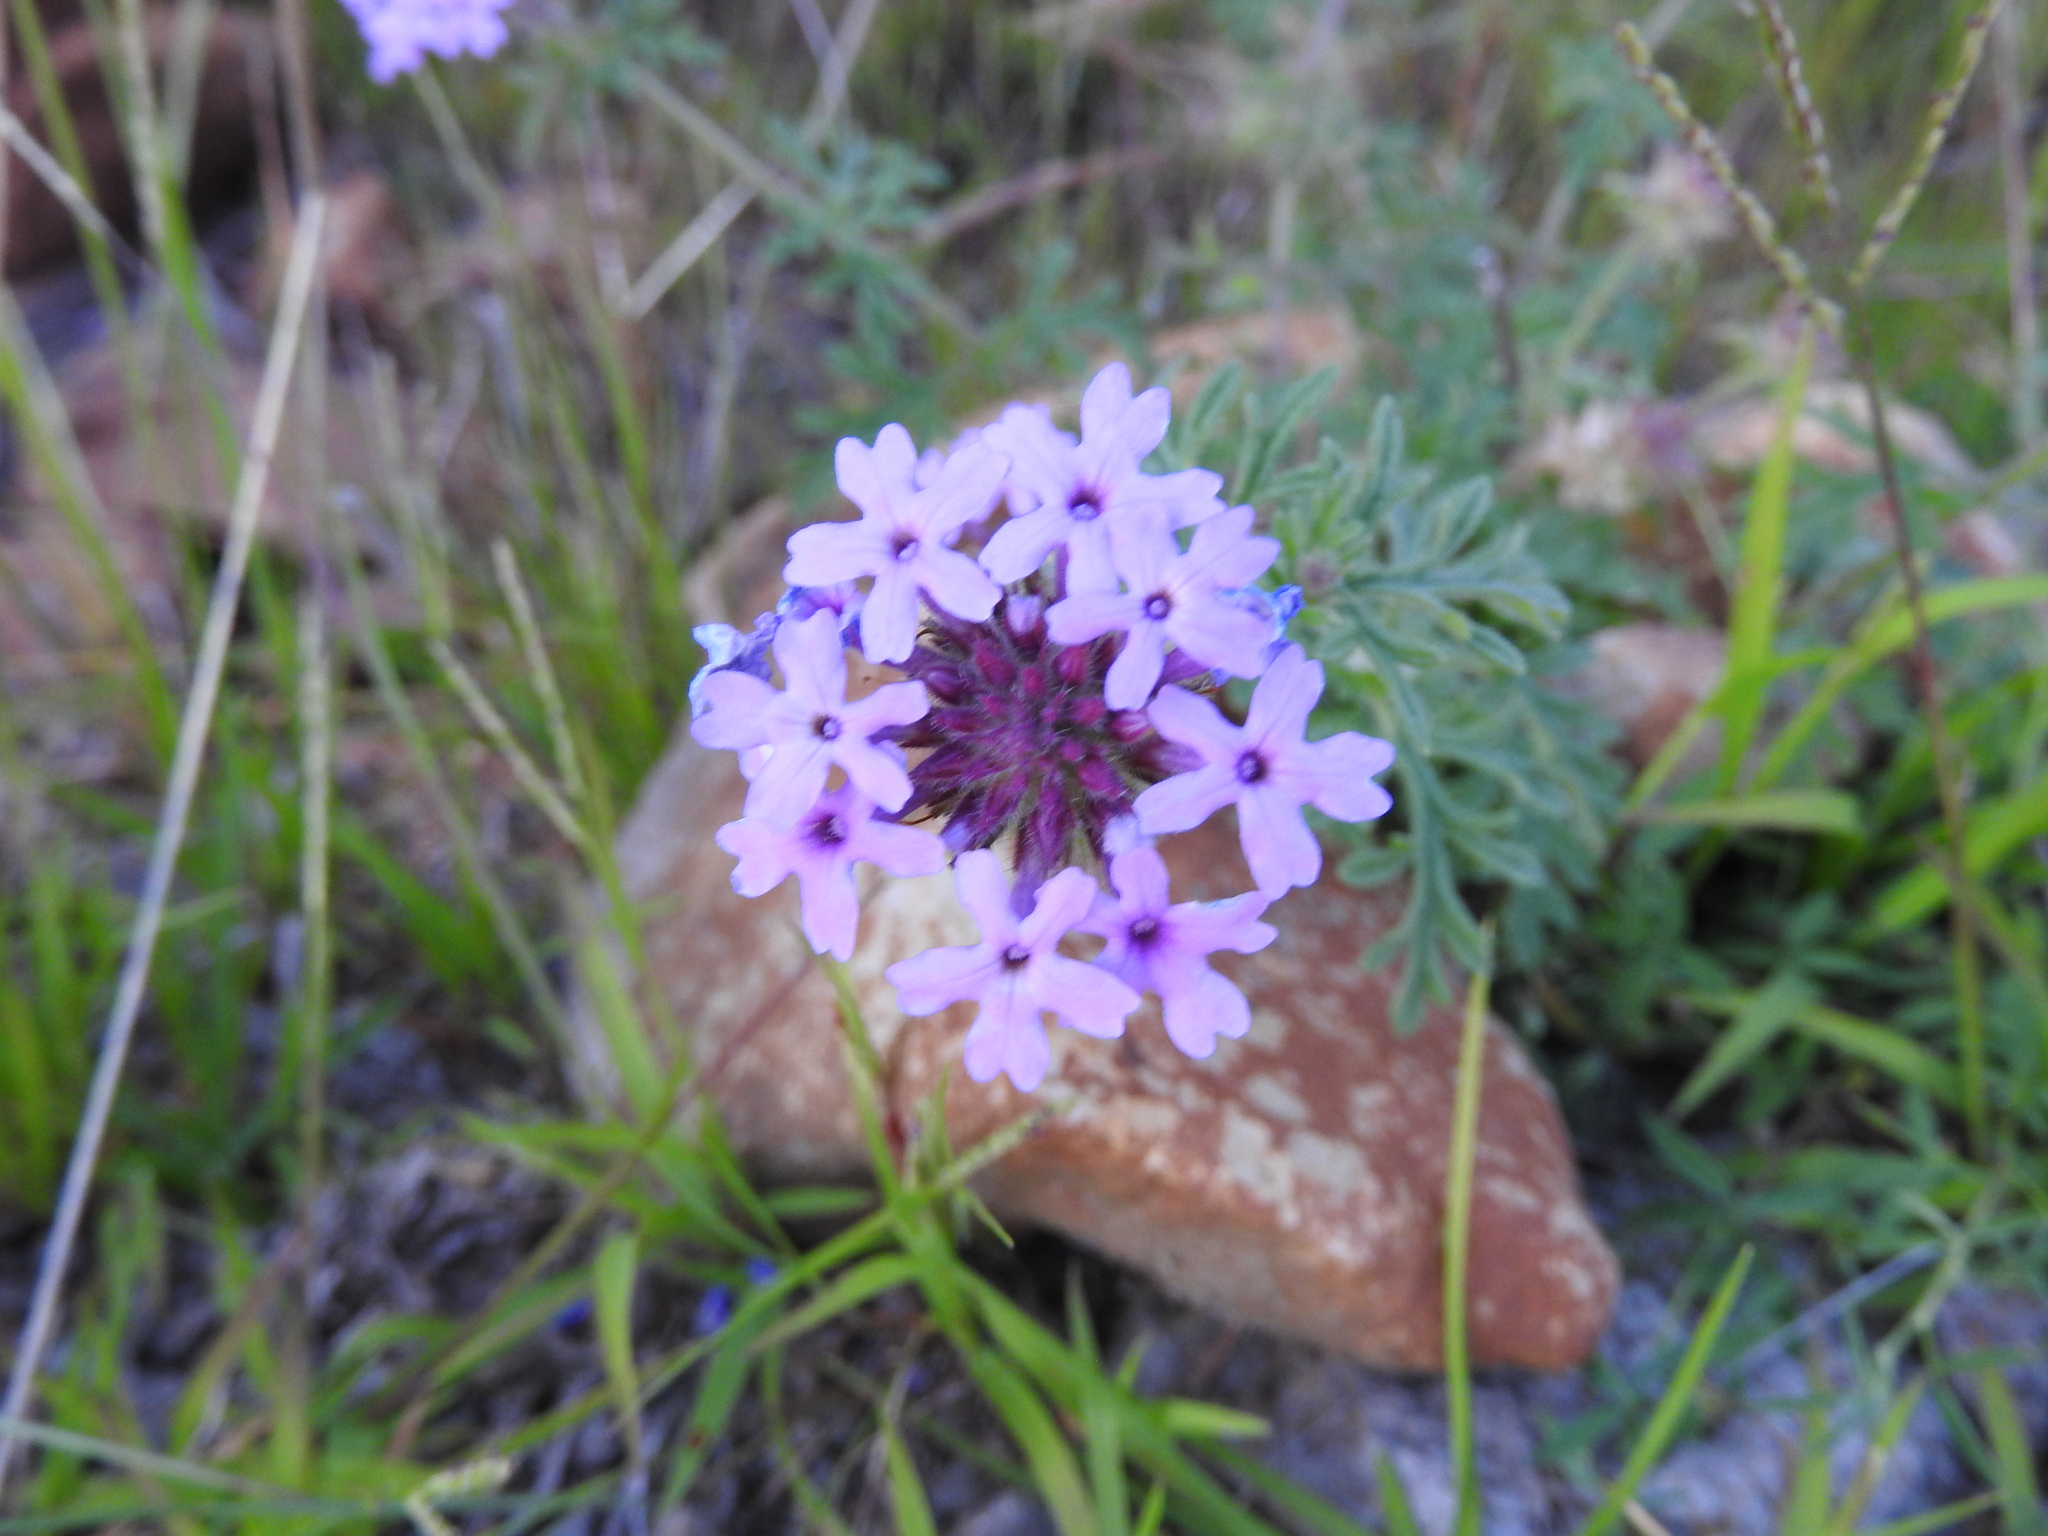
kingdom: Plantae
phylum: Tracheophyta
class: Magnoliopsida
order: Lamiales
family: Verbenaceae
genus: Verbena
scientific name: Verbena bipinnatifida
